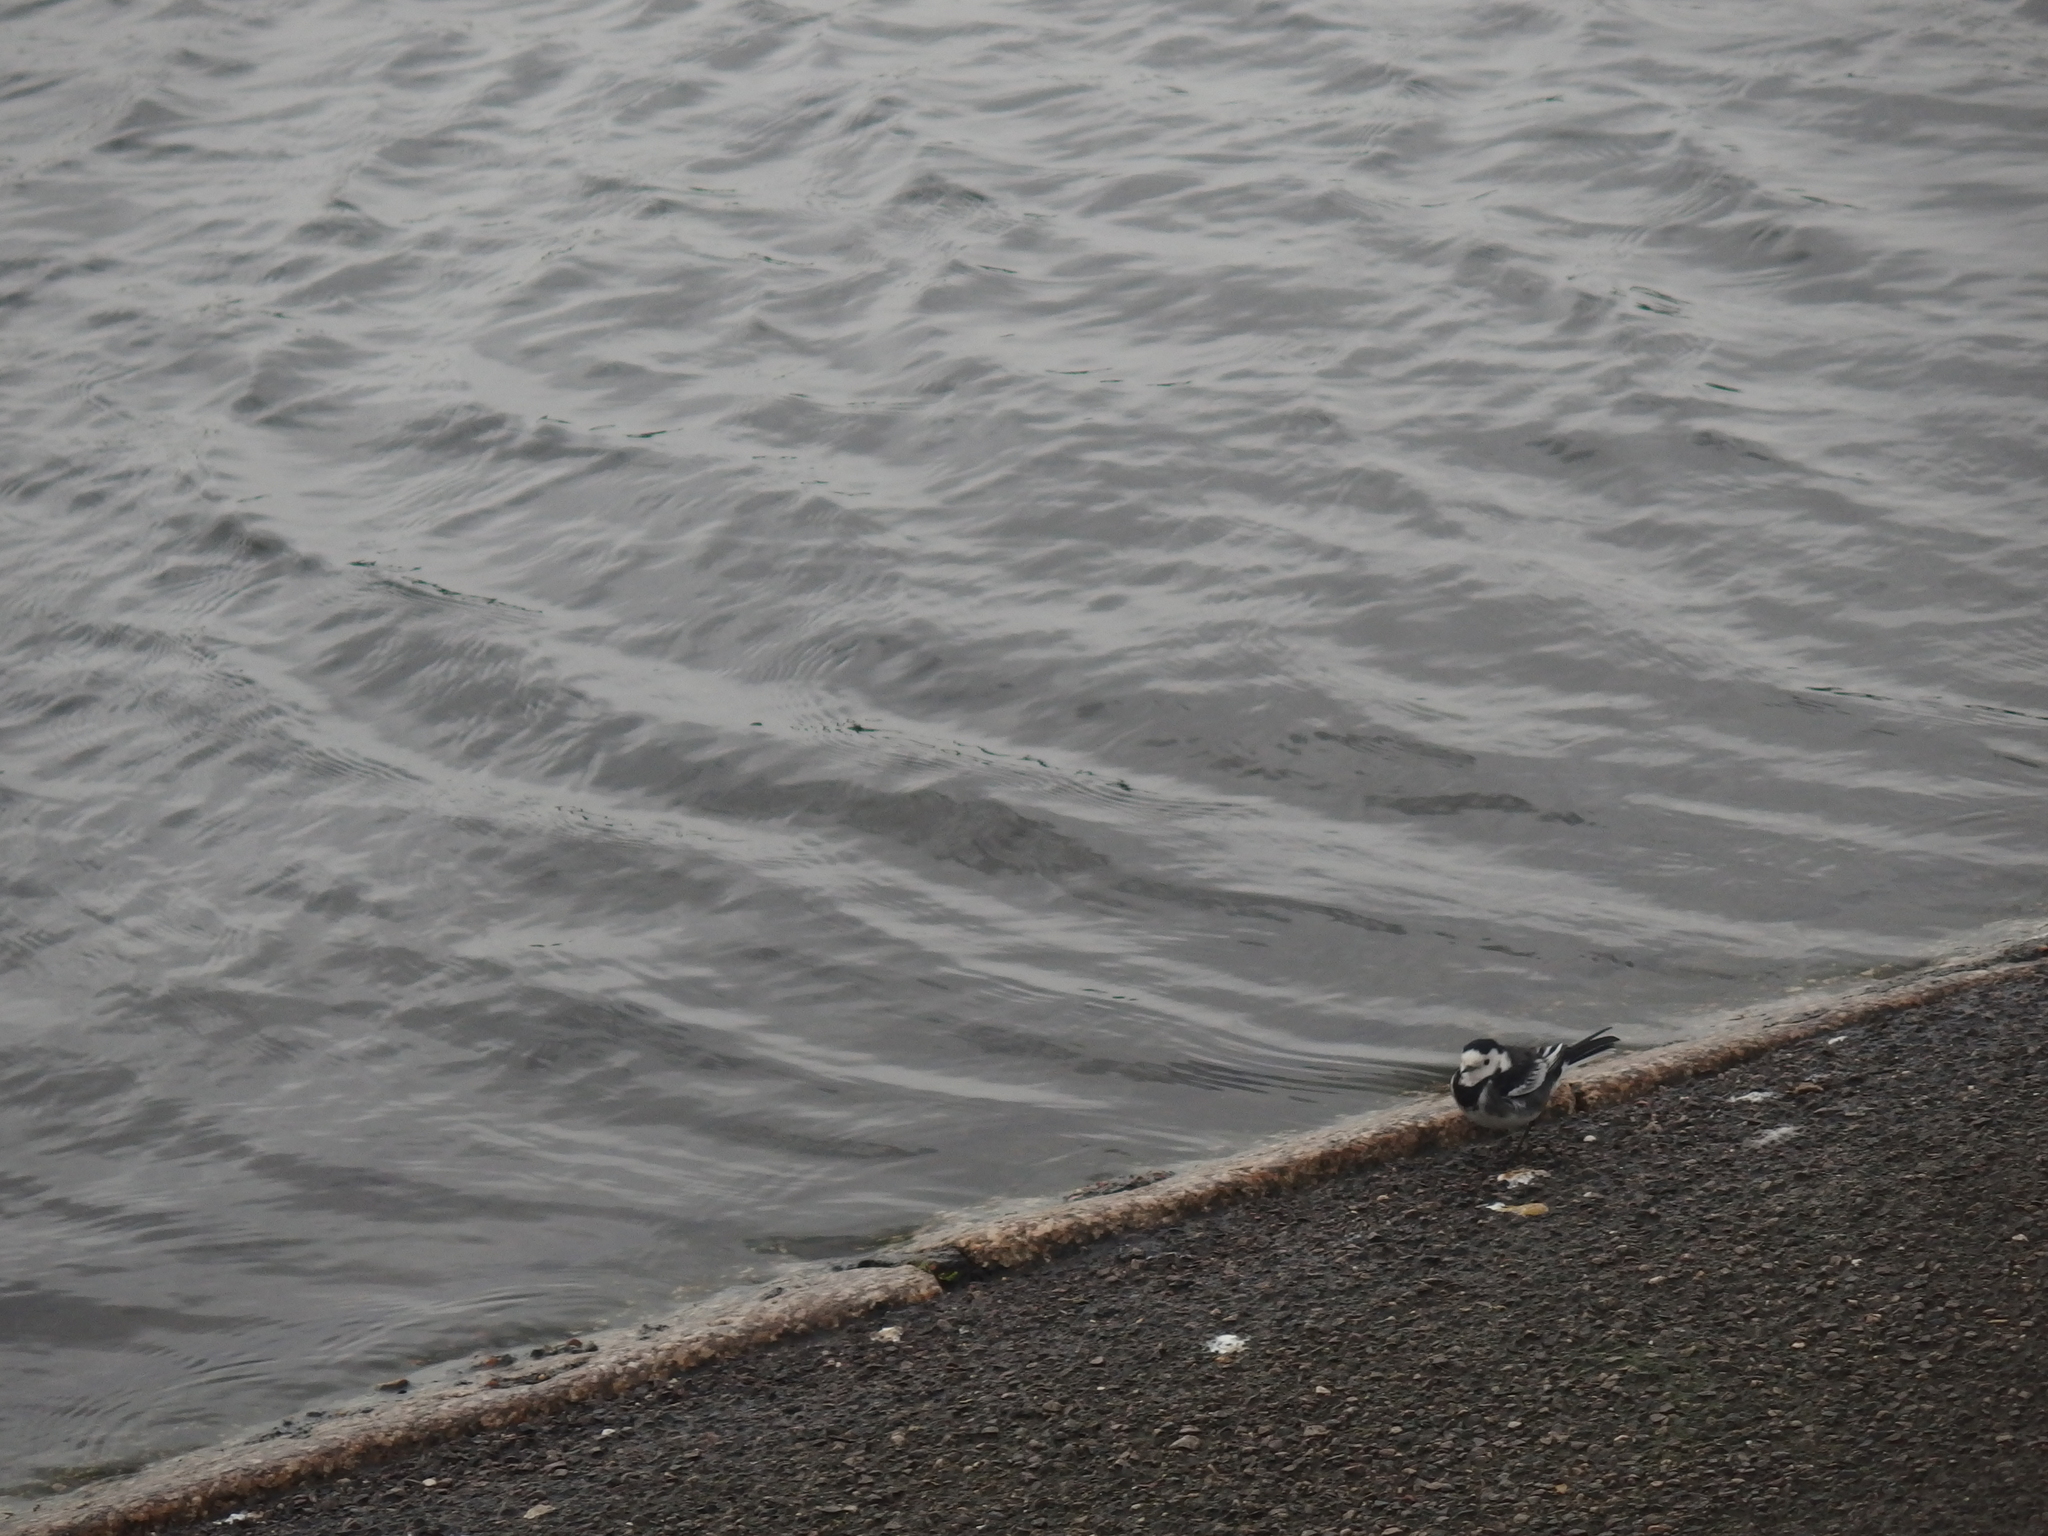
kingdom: Animalia
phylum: Chordata
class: Aves
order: Passeriformes
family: Motacillidae
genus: Motacilla
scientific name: Motacilla alba
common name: White wagtail
